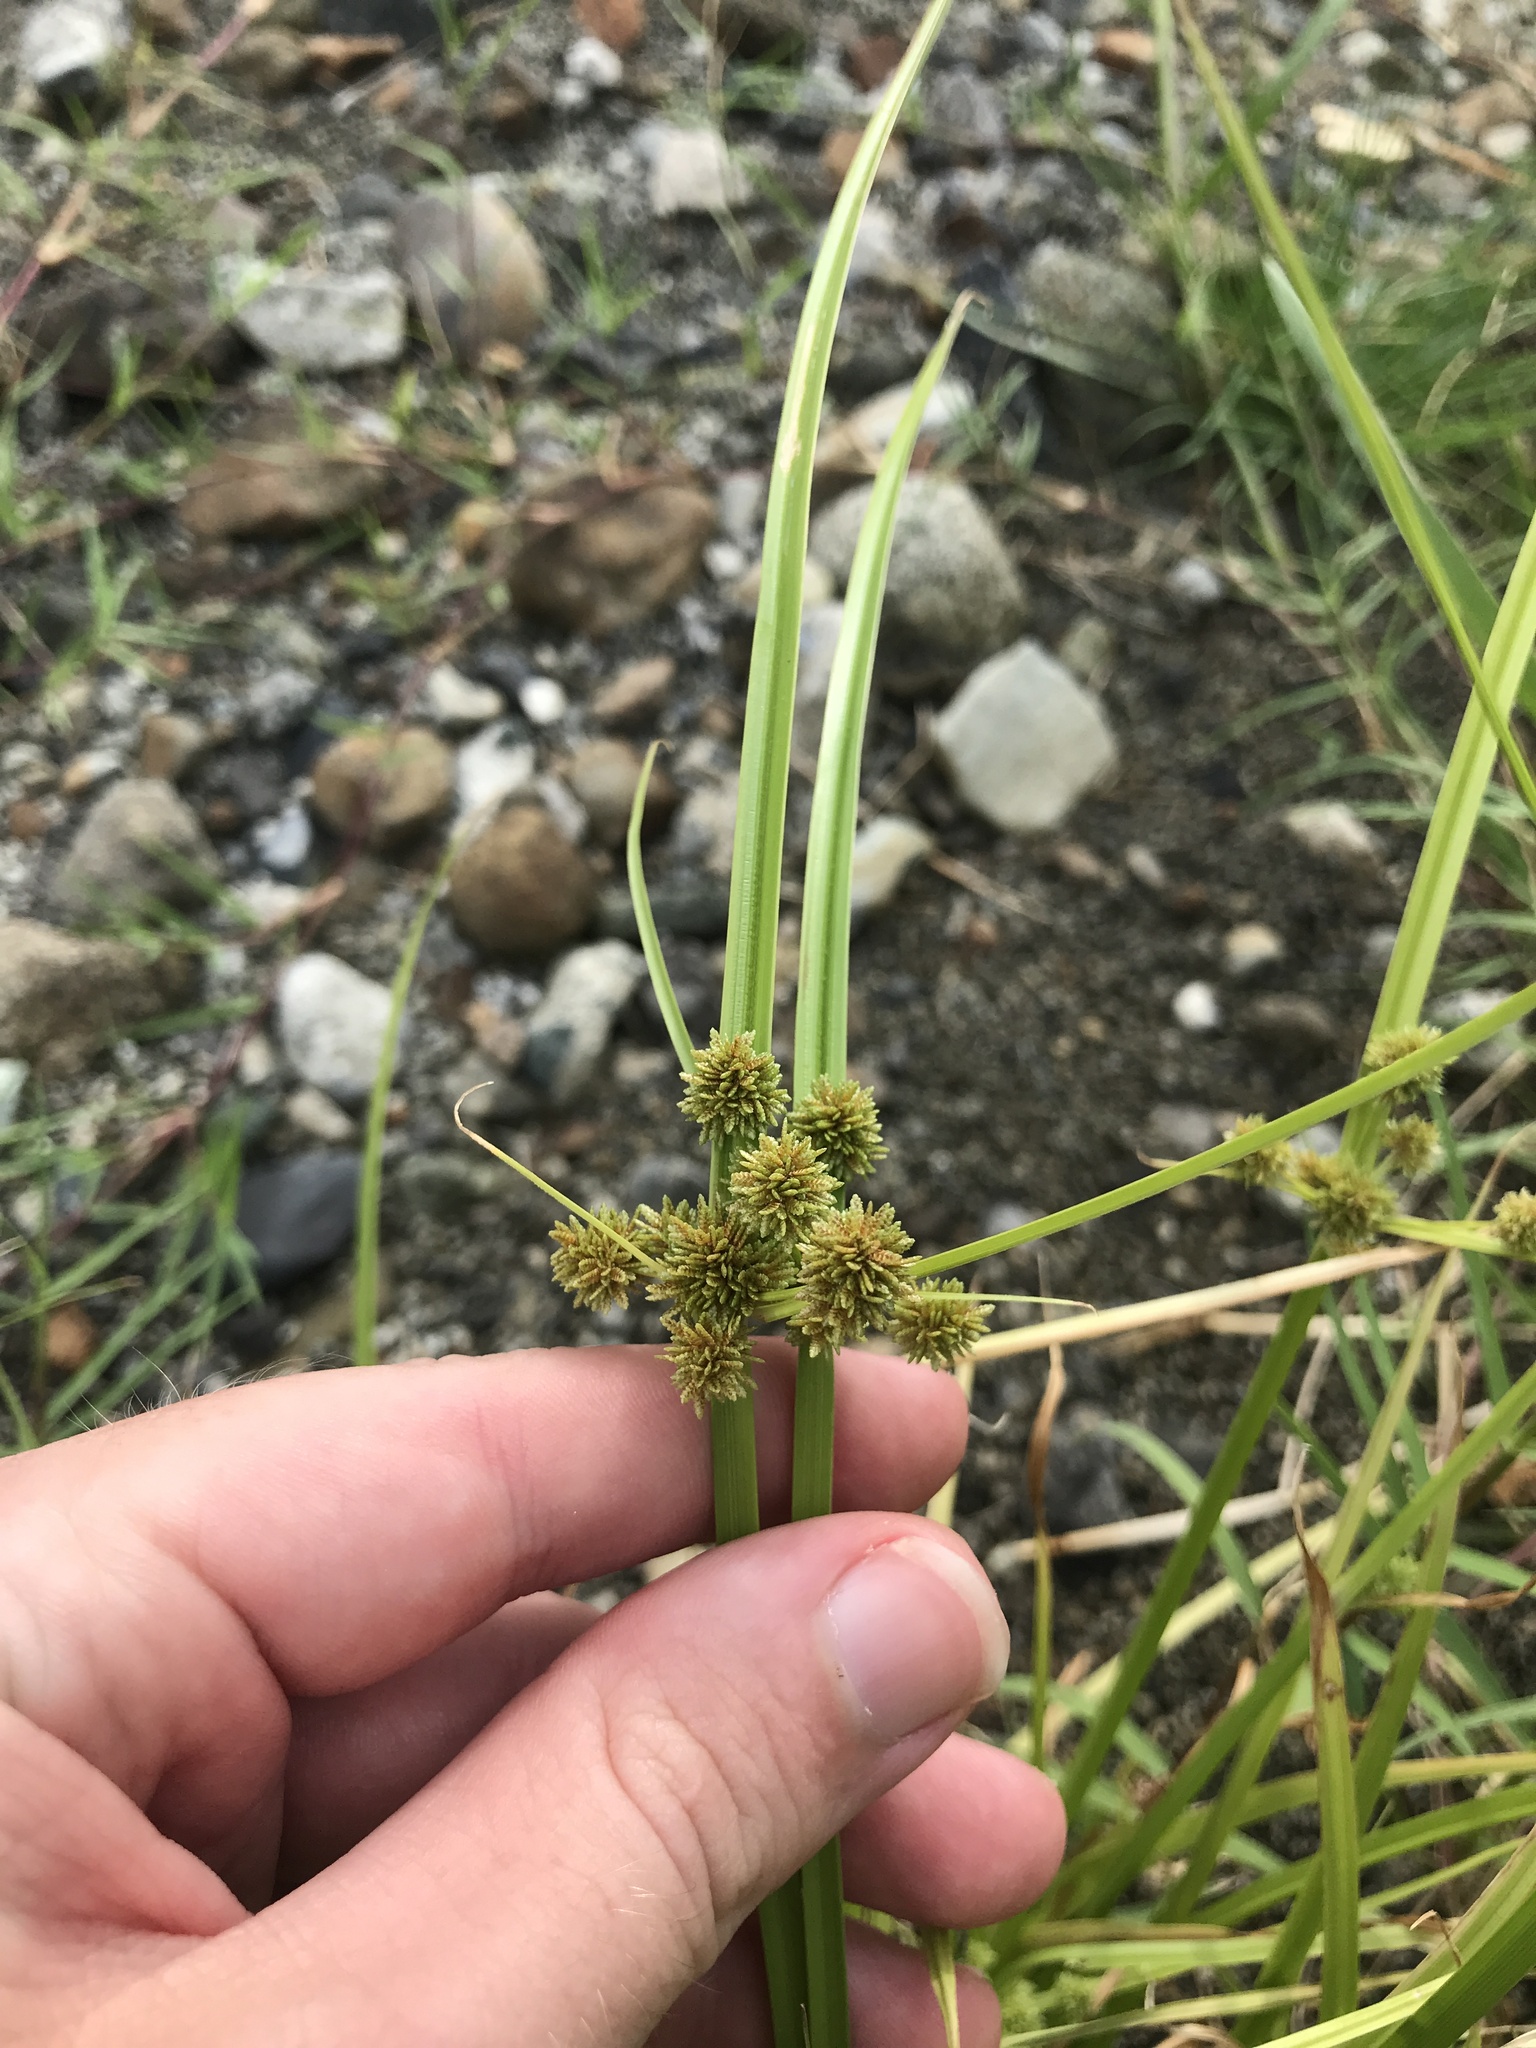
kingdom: Plantae
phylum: Tracheophyta
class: Liliopsida
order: Poales
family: Cyperaceae
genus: Cyperus
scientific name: Cyperus difformis
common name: Variable flatsedge
